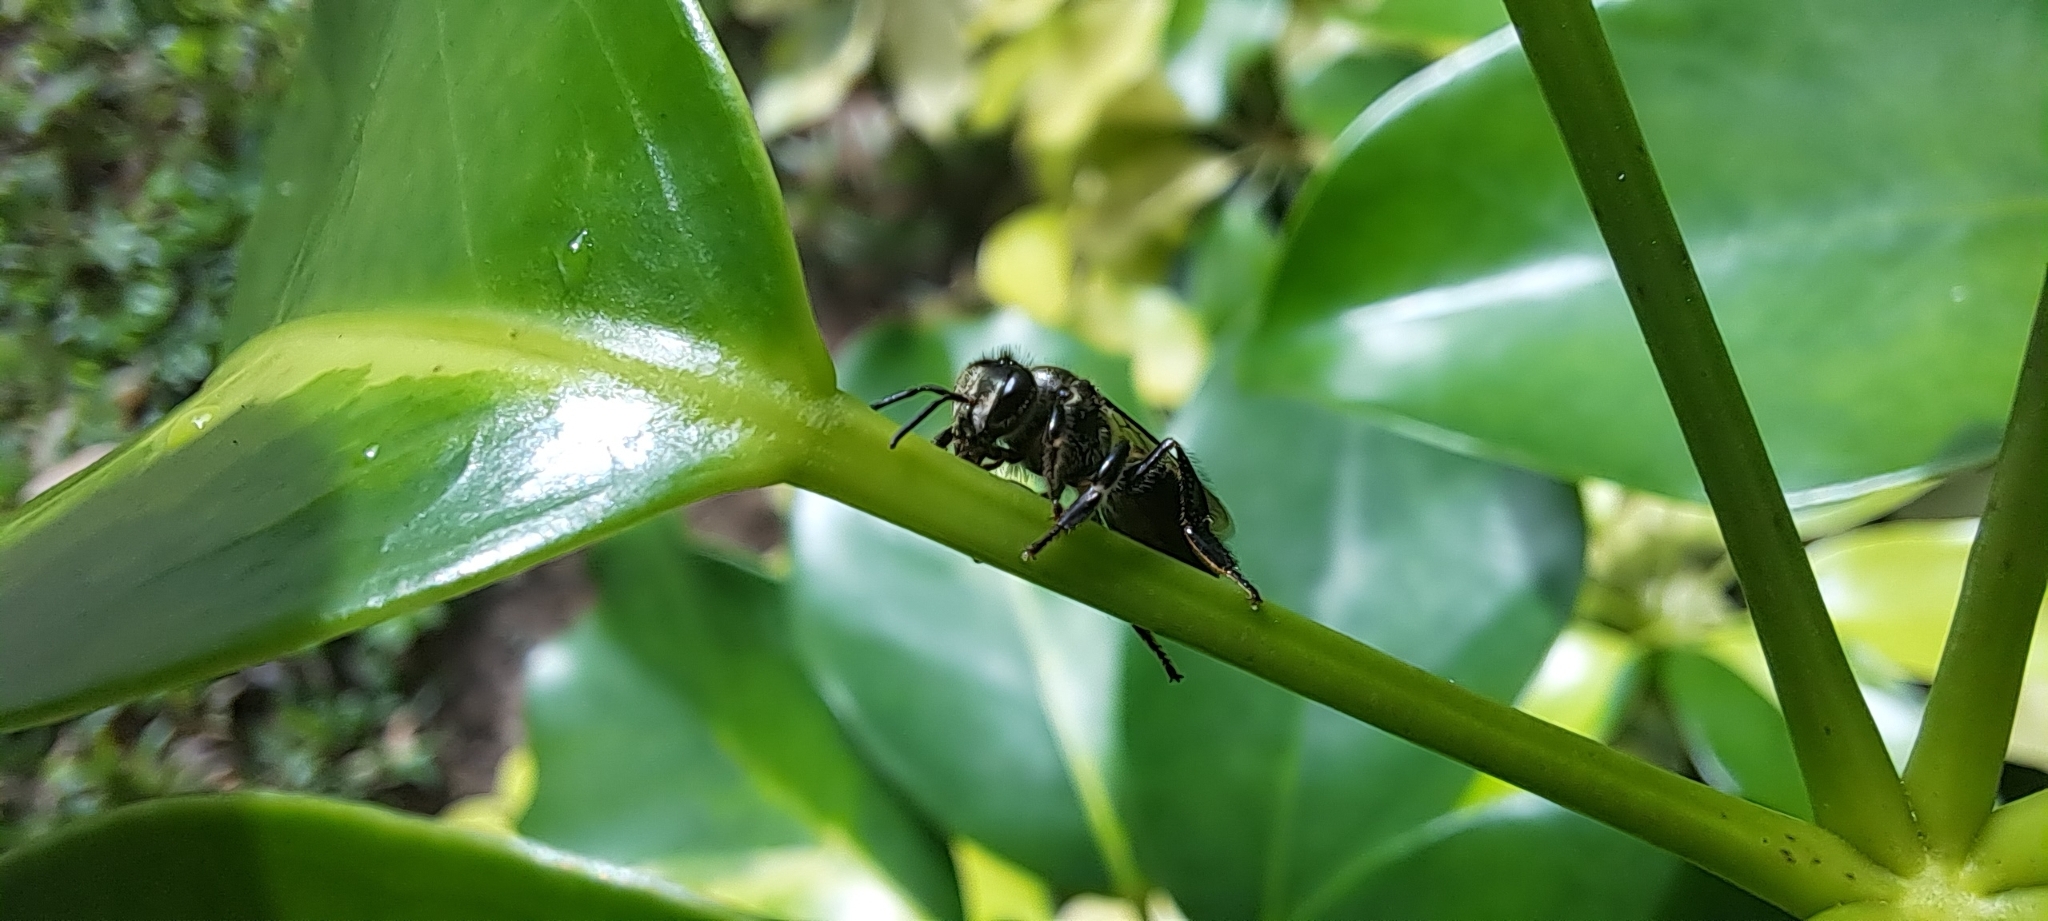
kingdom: Animalia
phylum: Arthropoda
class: Insecta
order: Hymenoptera
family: Apidae
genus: Apis
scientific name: Apis andreniformis
